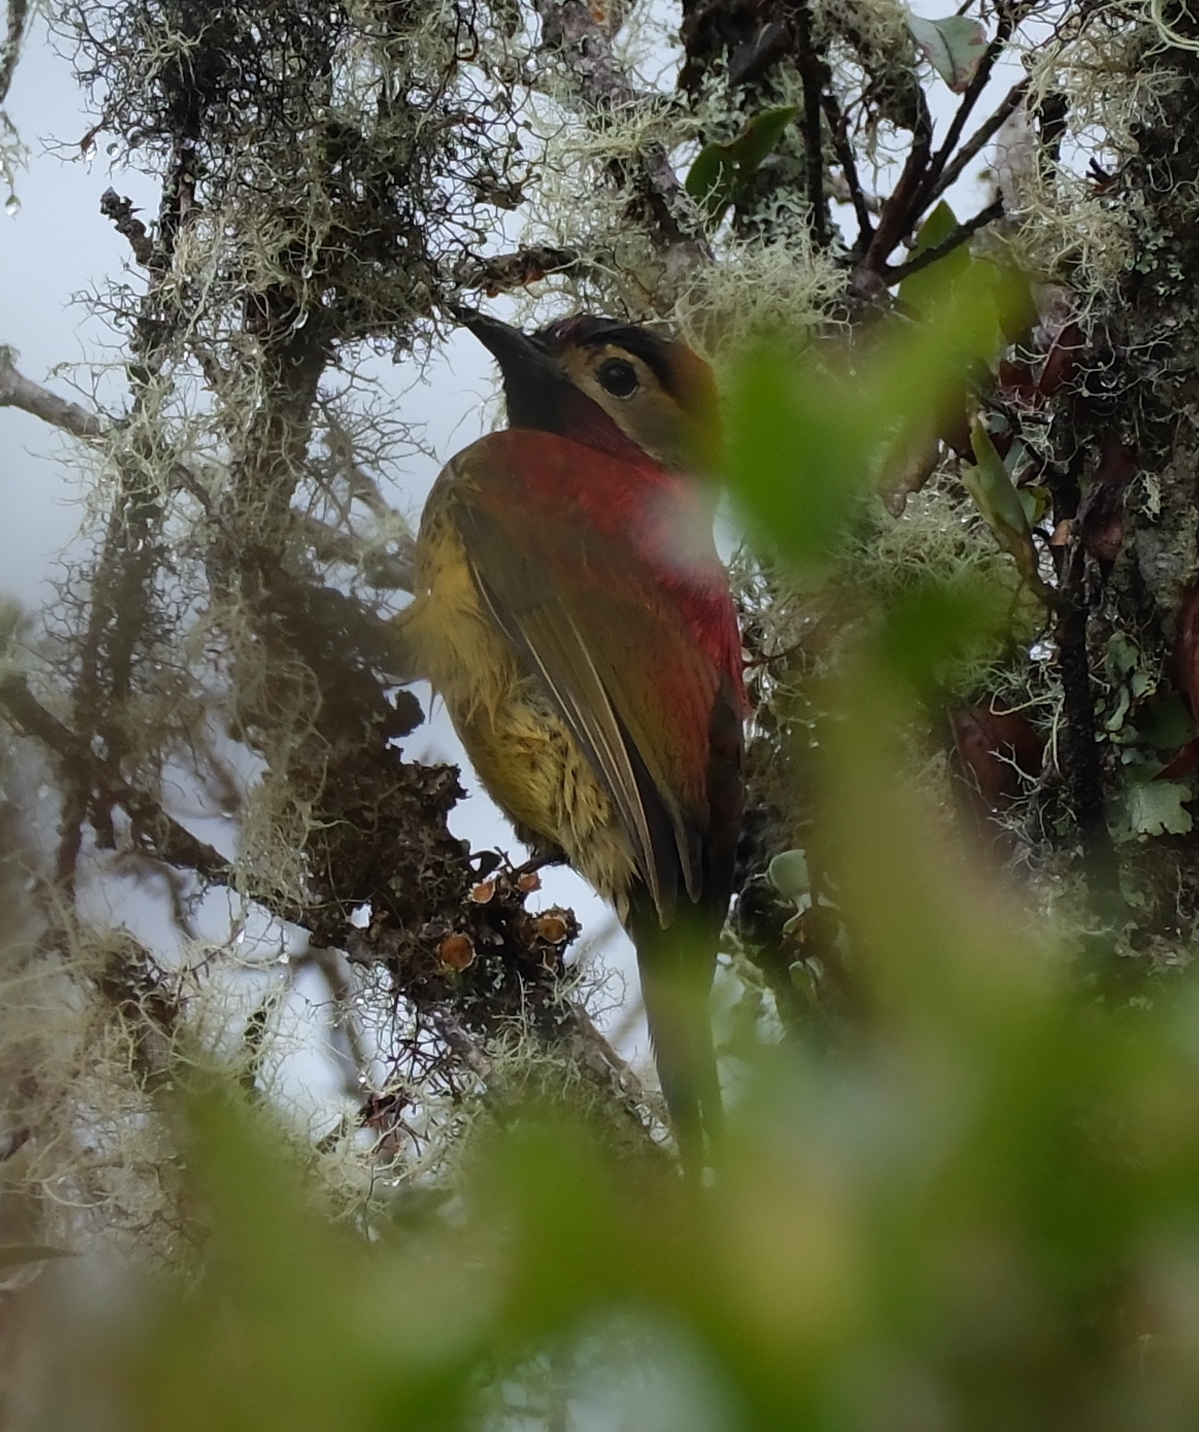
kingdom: Animalia
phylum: Chordata
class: Aves
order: Piciformes
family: Picidae
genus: Colaptes
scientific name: Colaptes rivolii
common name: Crimson-mantled woodpecker
